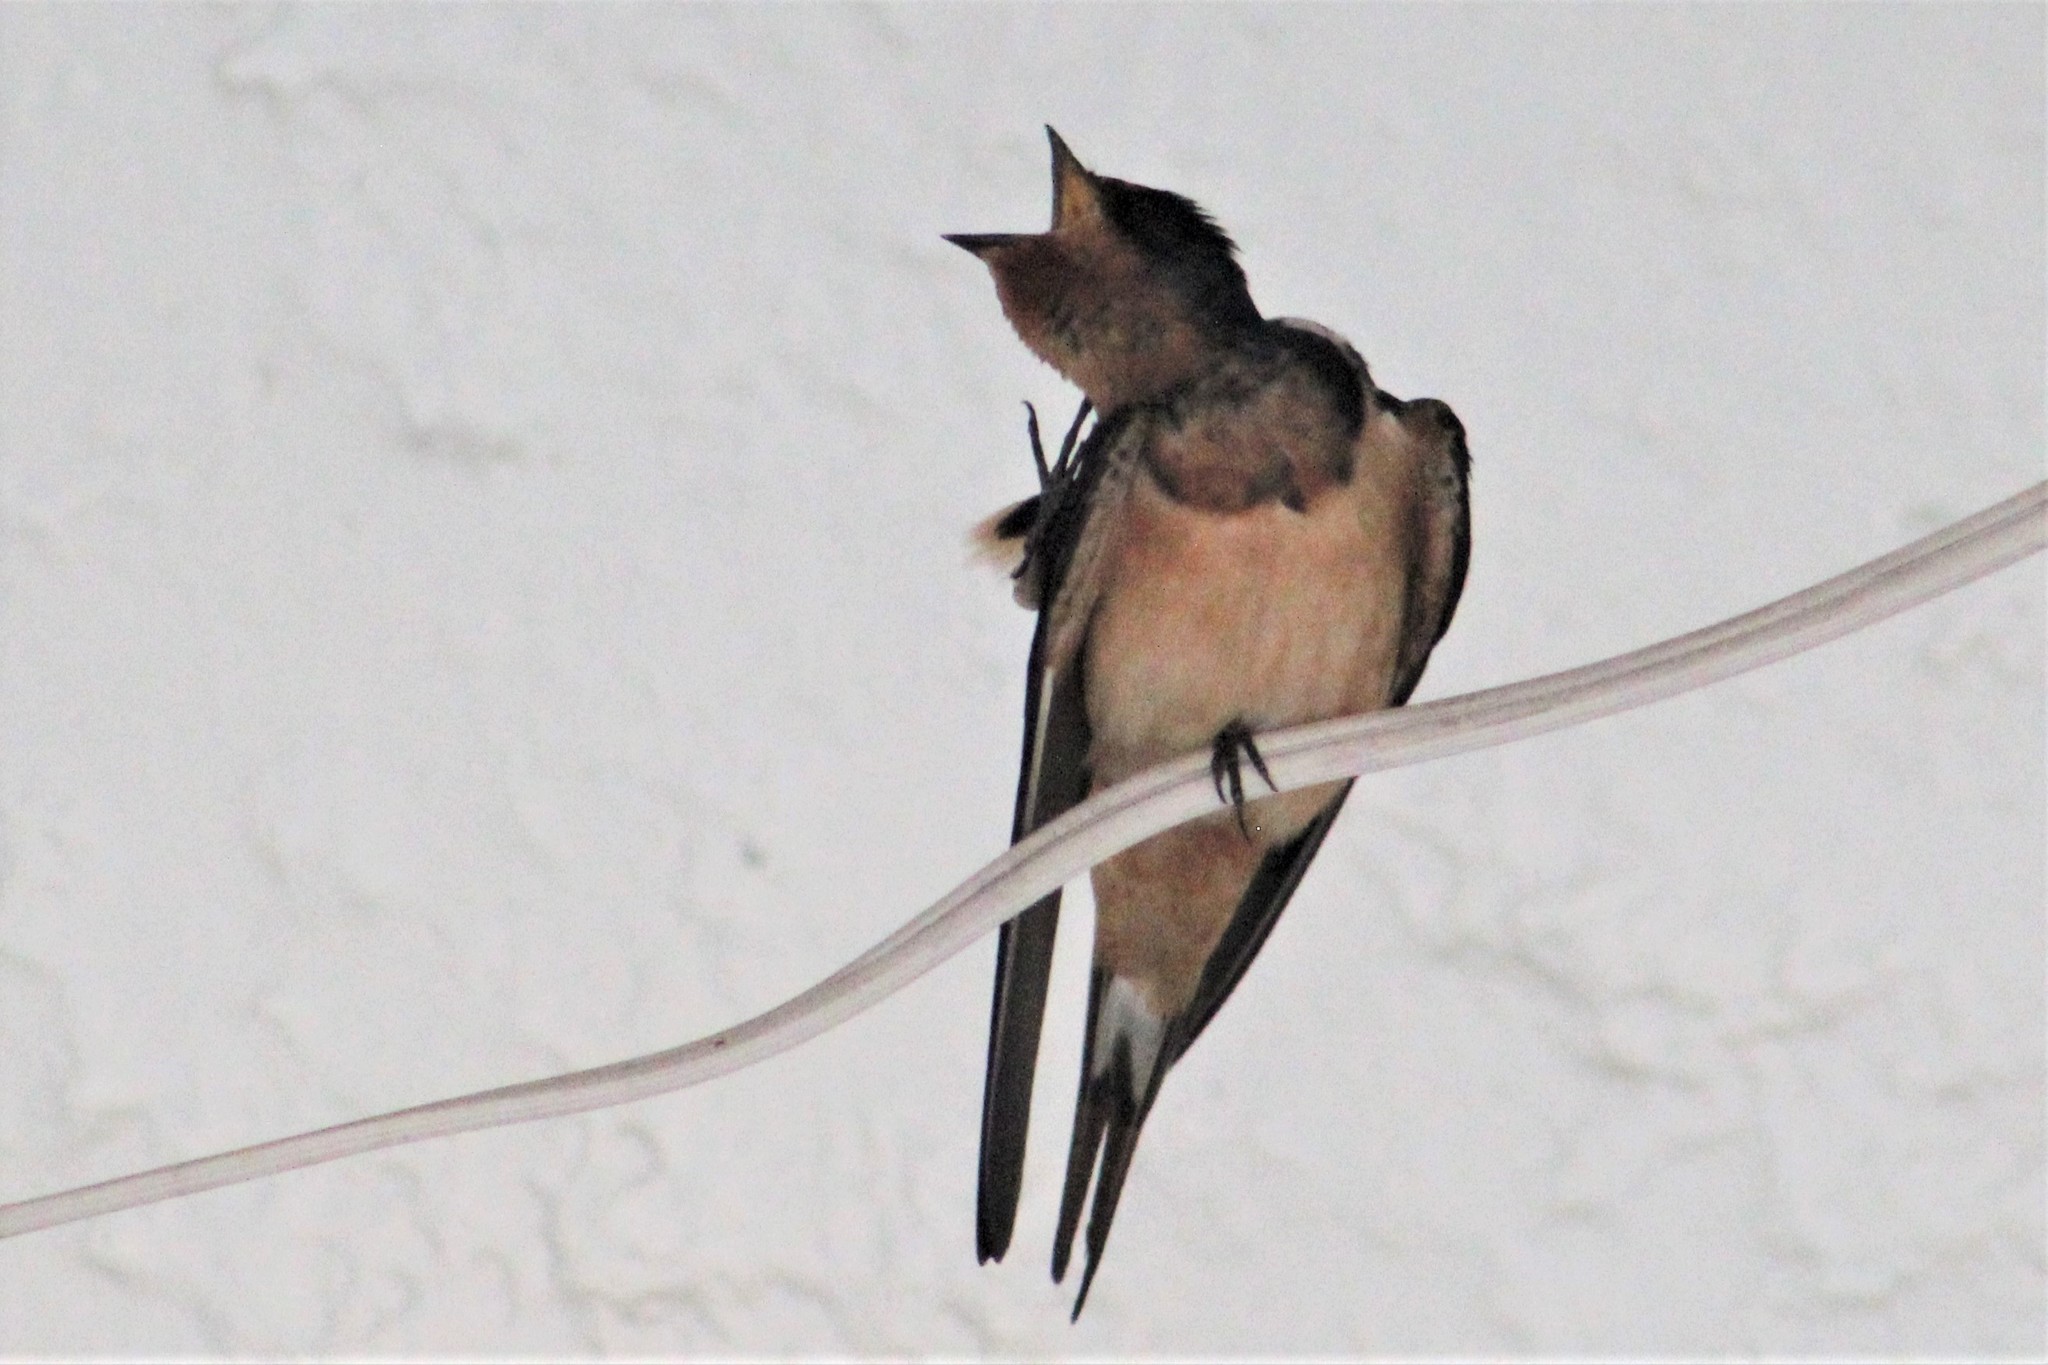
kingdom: Animalia
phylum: Chordata
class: Aves
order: Passeriformes
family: Hirundinidae
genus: Hirundo
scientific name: Hirundo rustica
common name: Barn swallow
